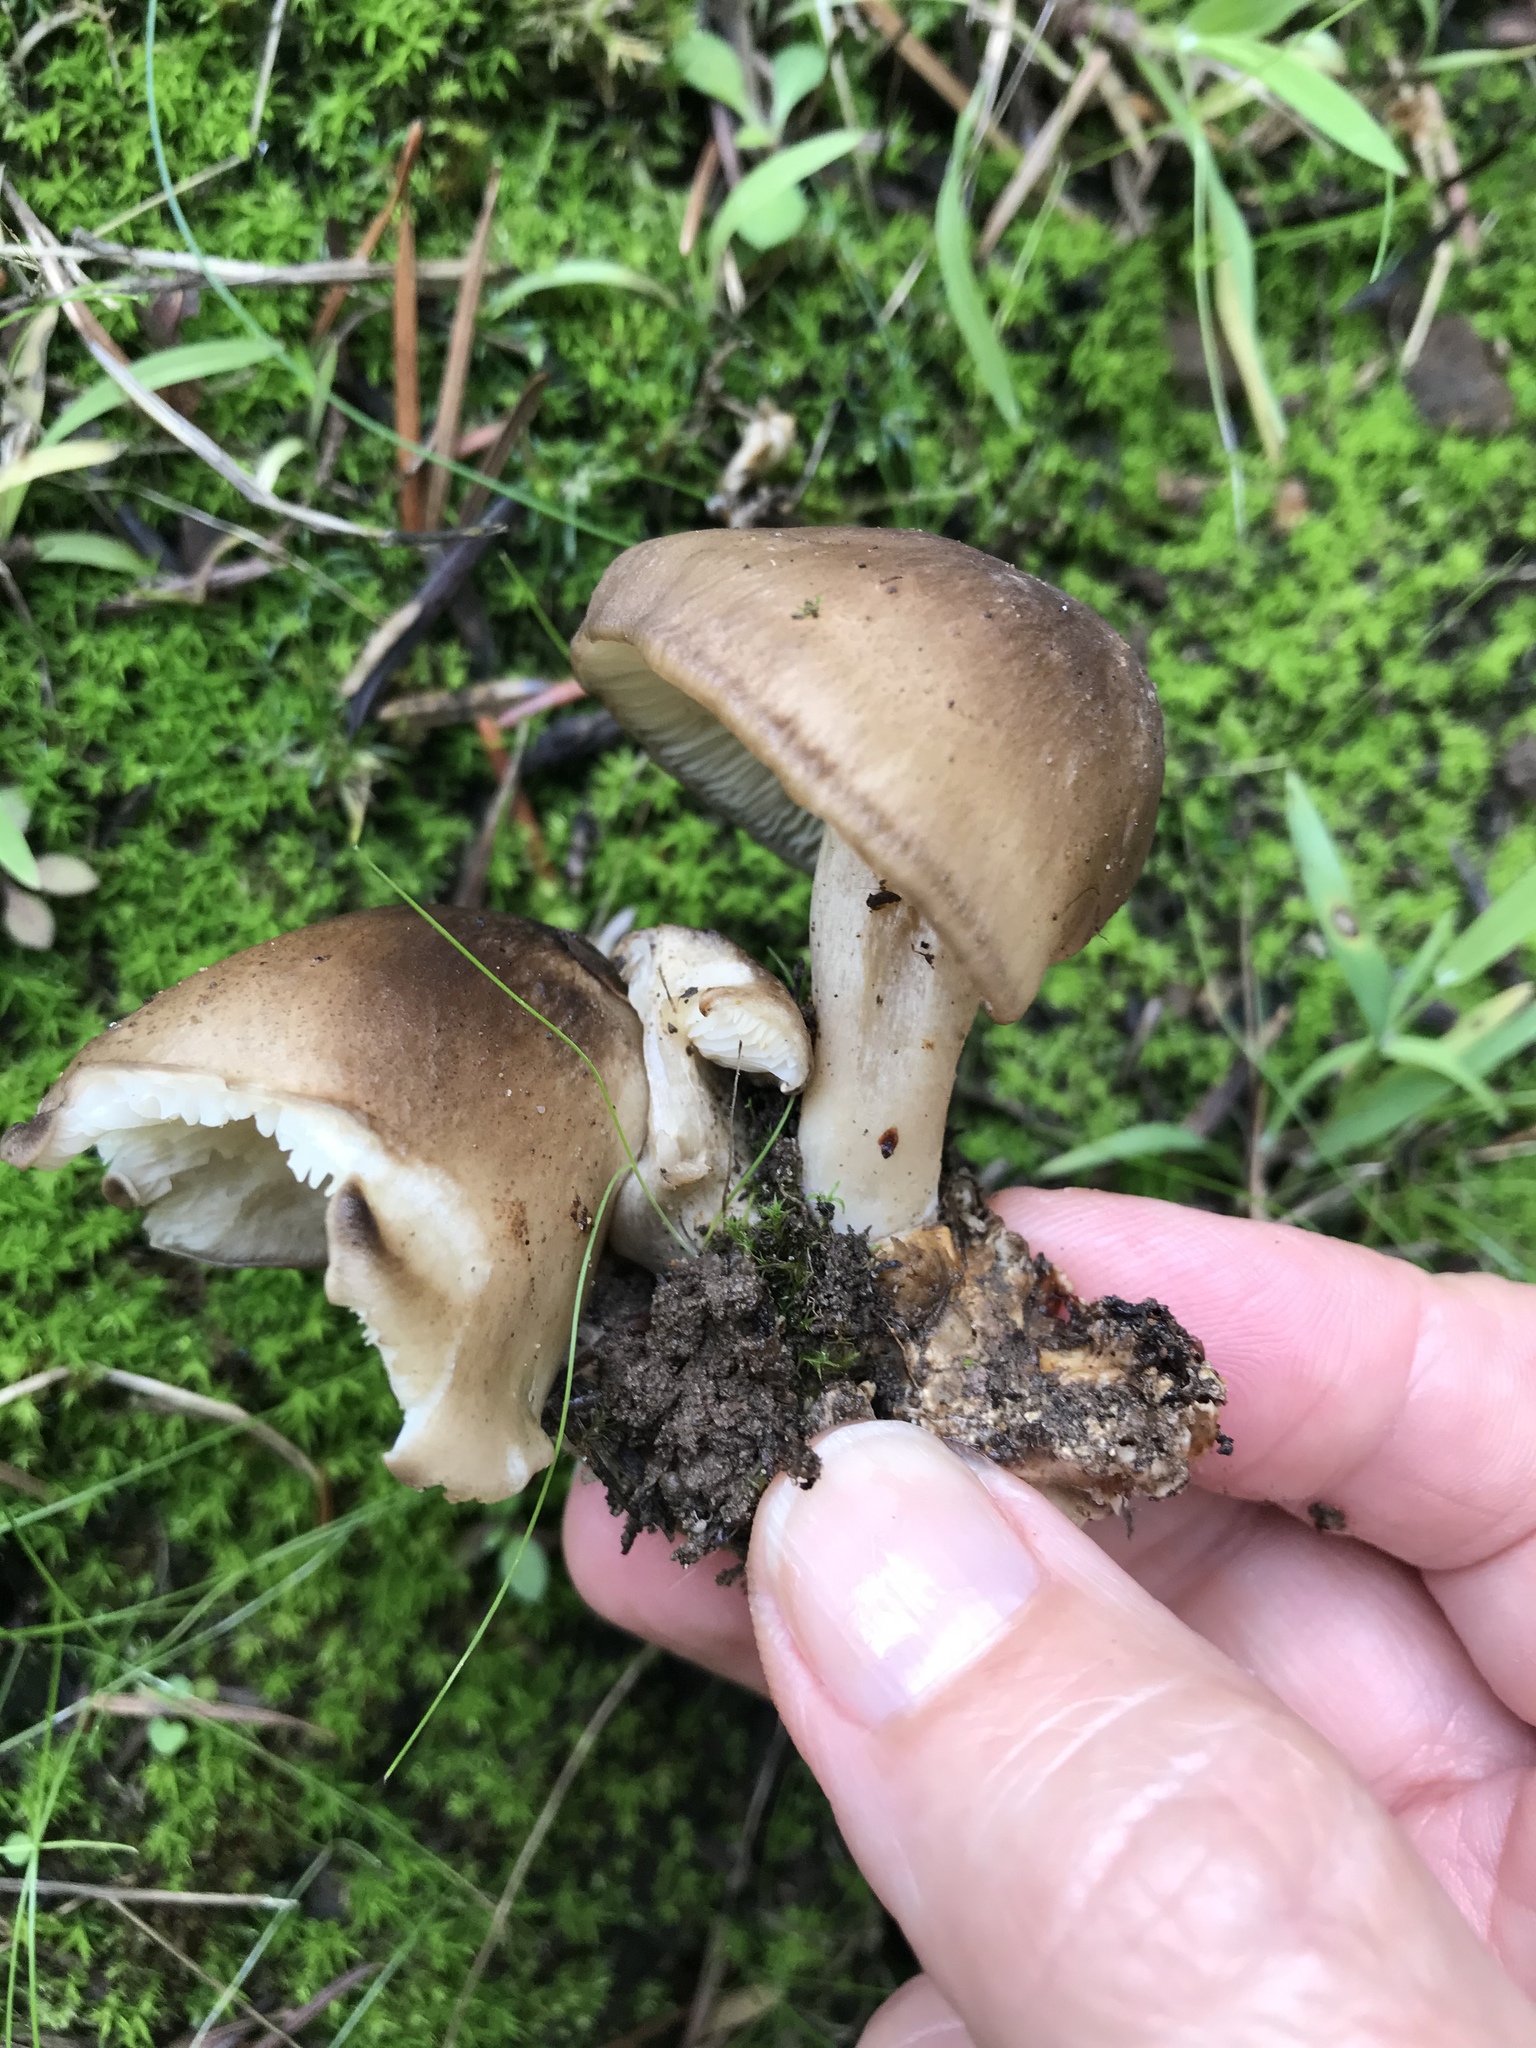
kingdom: Fungi
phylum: Basidiomycota
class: Agaricomycetes
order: Agaricales
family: Lyophyllaceae
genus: Lyophyllum
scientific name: Lyophyllum decastes
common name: Clustered domecap
